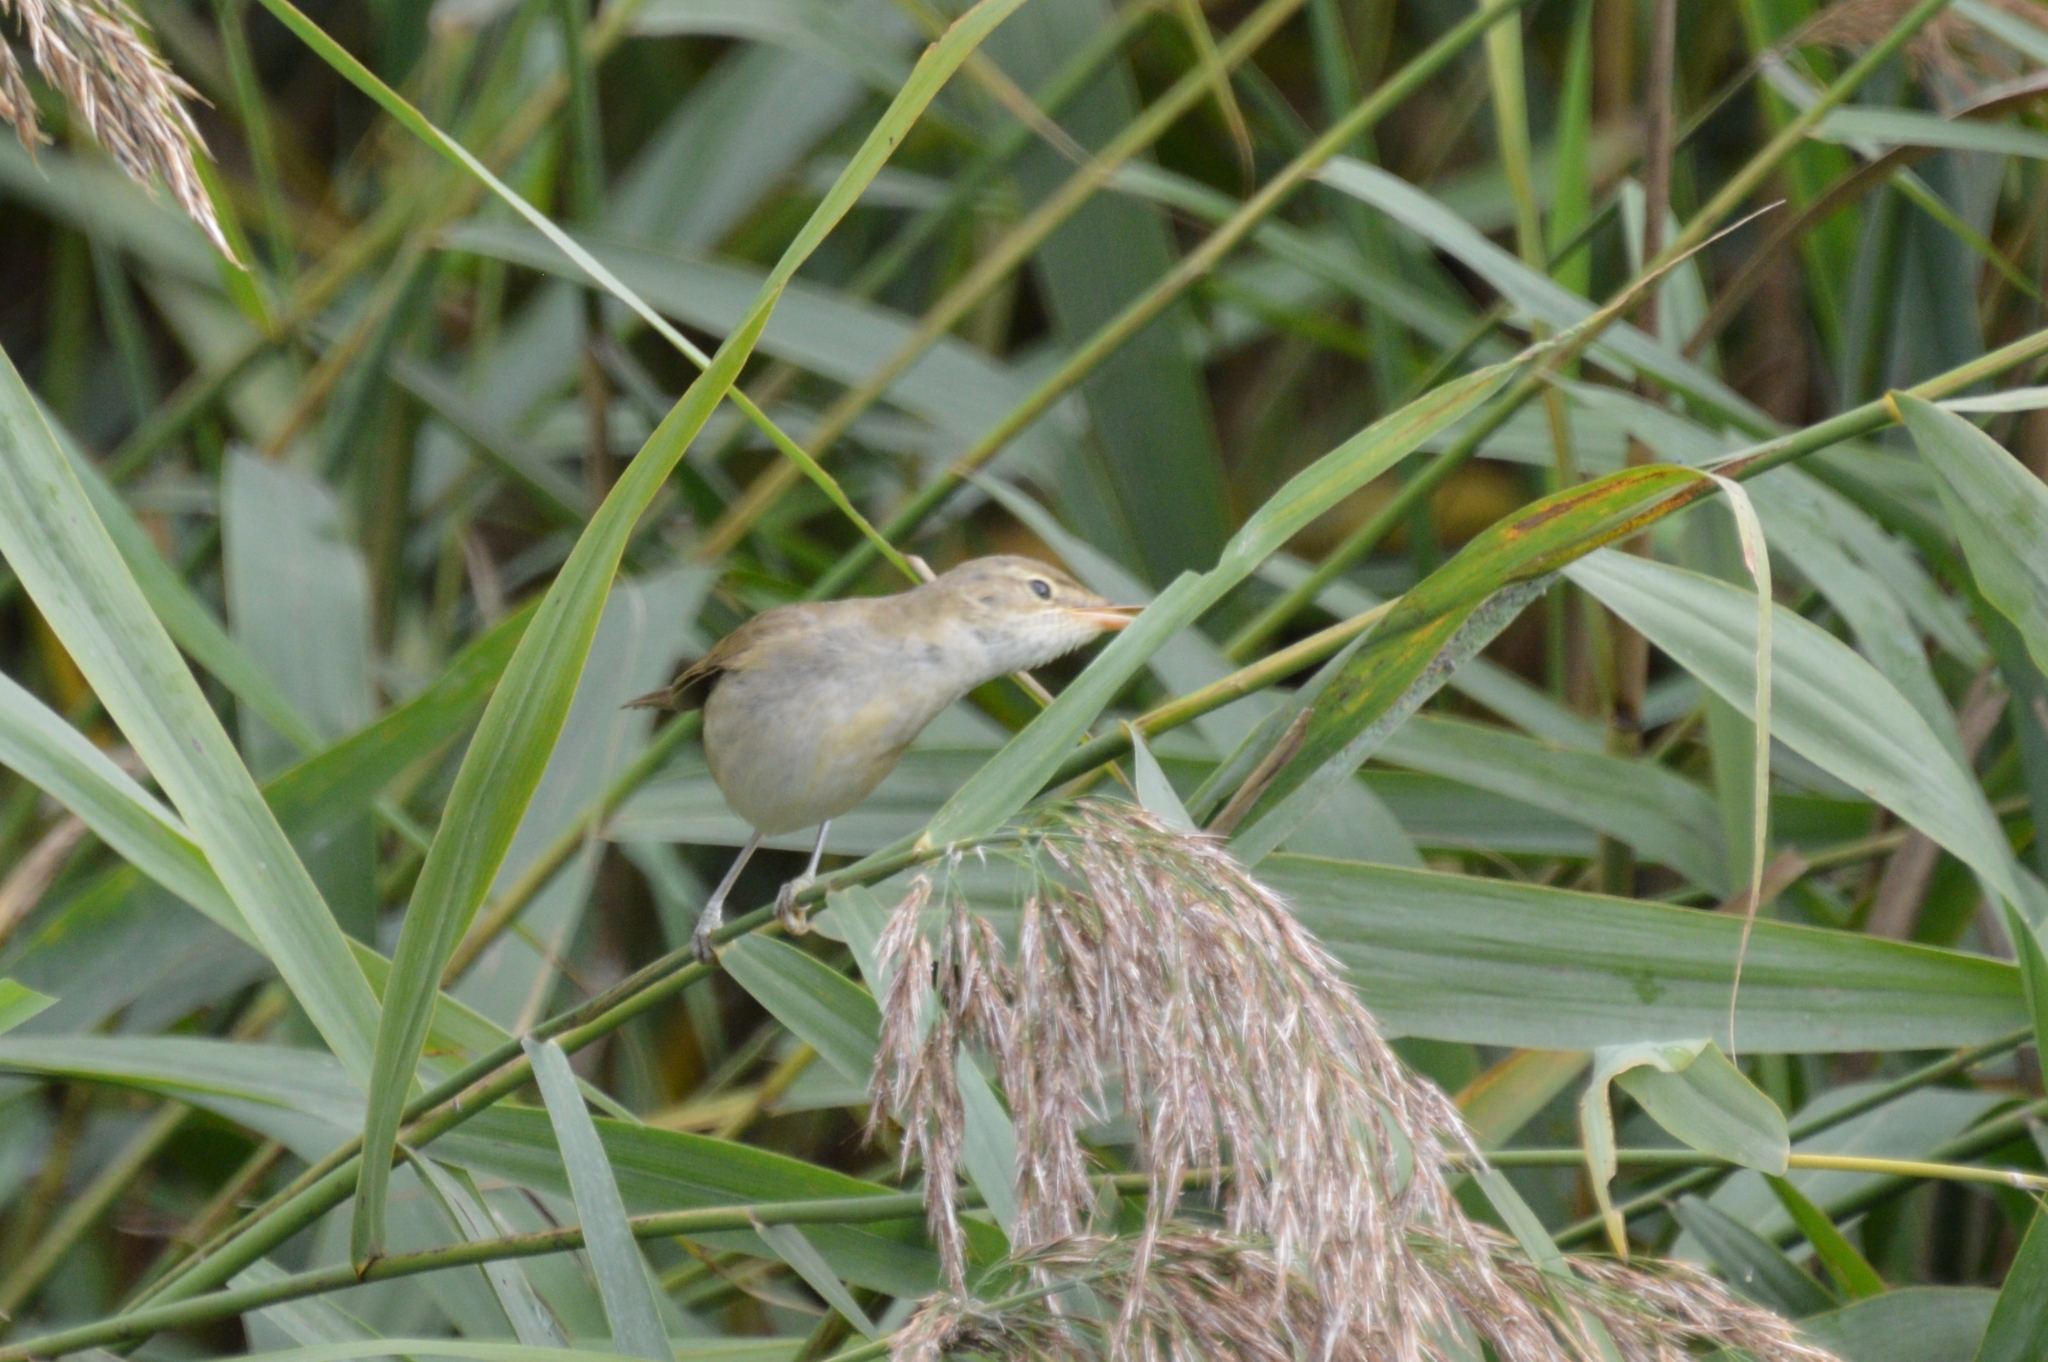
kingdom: Animalia
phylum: Chordata
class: Aves
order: Passeriformes
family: Acrocephalidae
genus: Acrocephalus
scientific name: Acrocephalus scirpaceus
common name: Eurasian reed warbler
